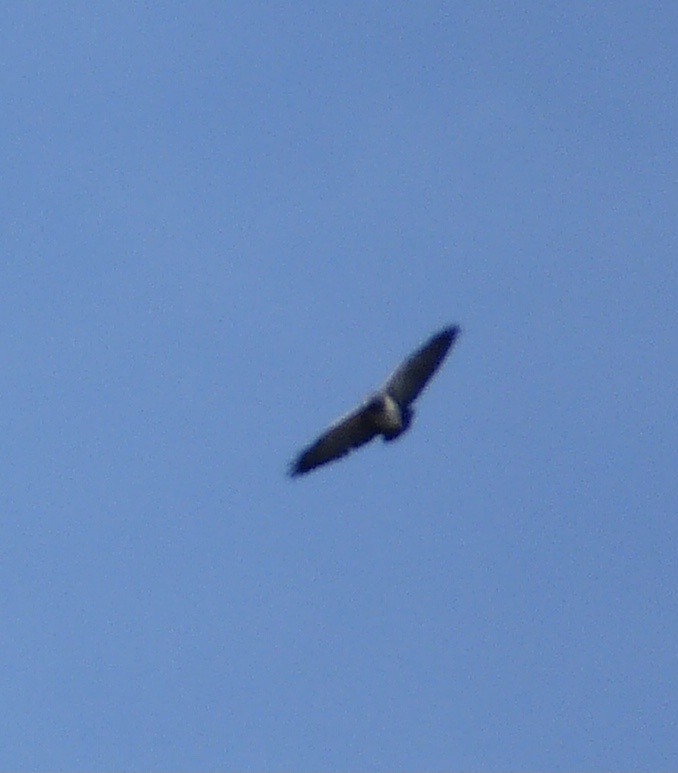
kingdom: Animalia
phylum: Chordata
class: Aves
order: Accipitriformes
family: Accipitridae
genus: Geranoaetus
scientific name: Geranoaetus melanoleucus
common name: Black-chested buzzard-eagle
